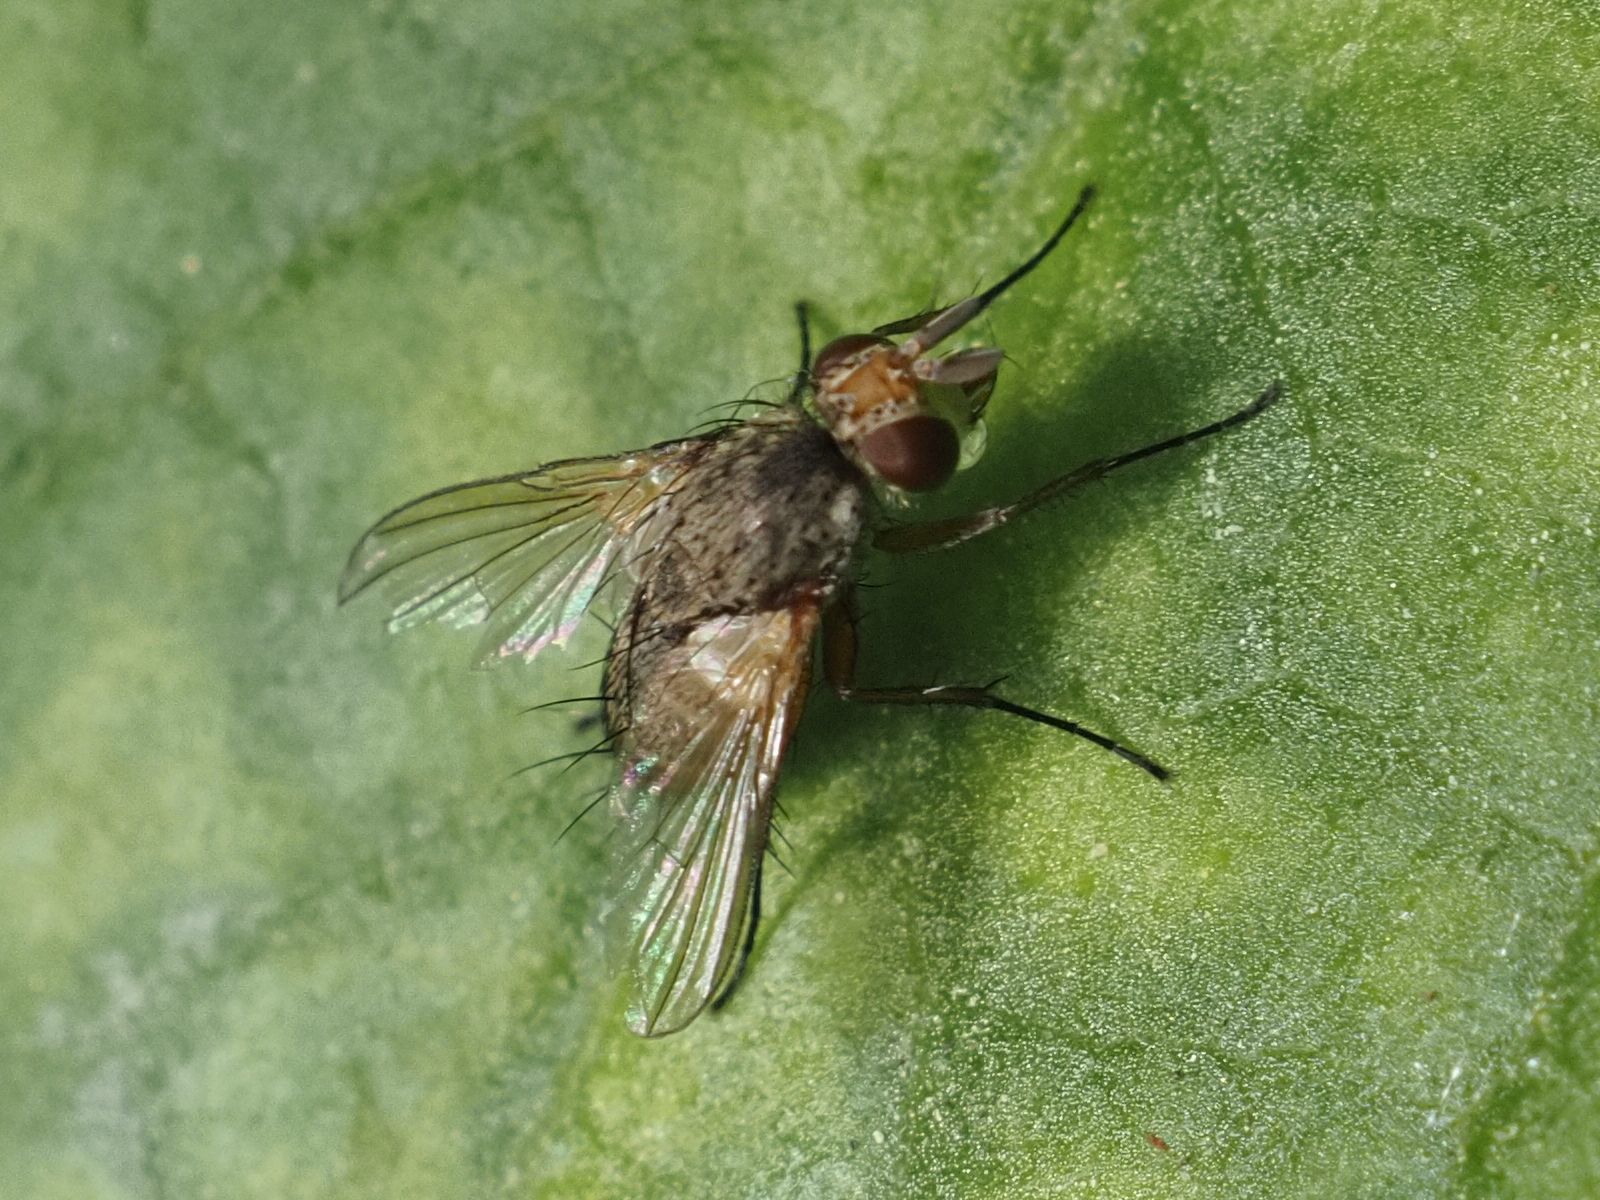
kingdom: Animalia
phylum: Arthropoda
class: Insecta
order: Diptera
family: Tachinidae
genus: Siphona
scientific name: Siphona maculata
